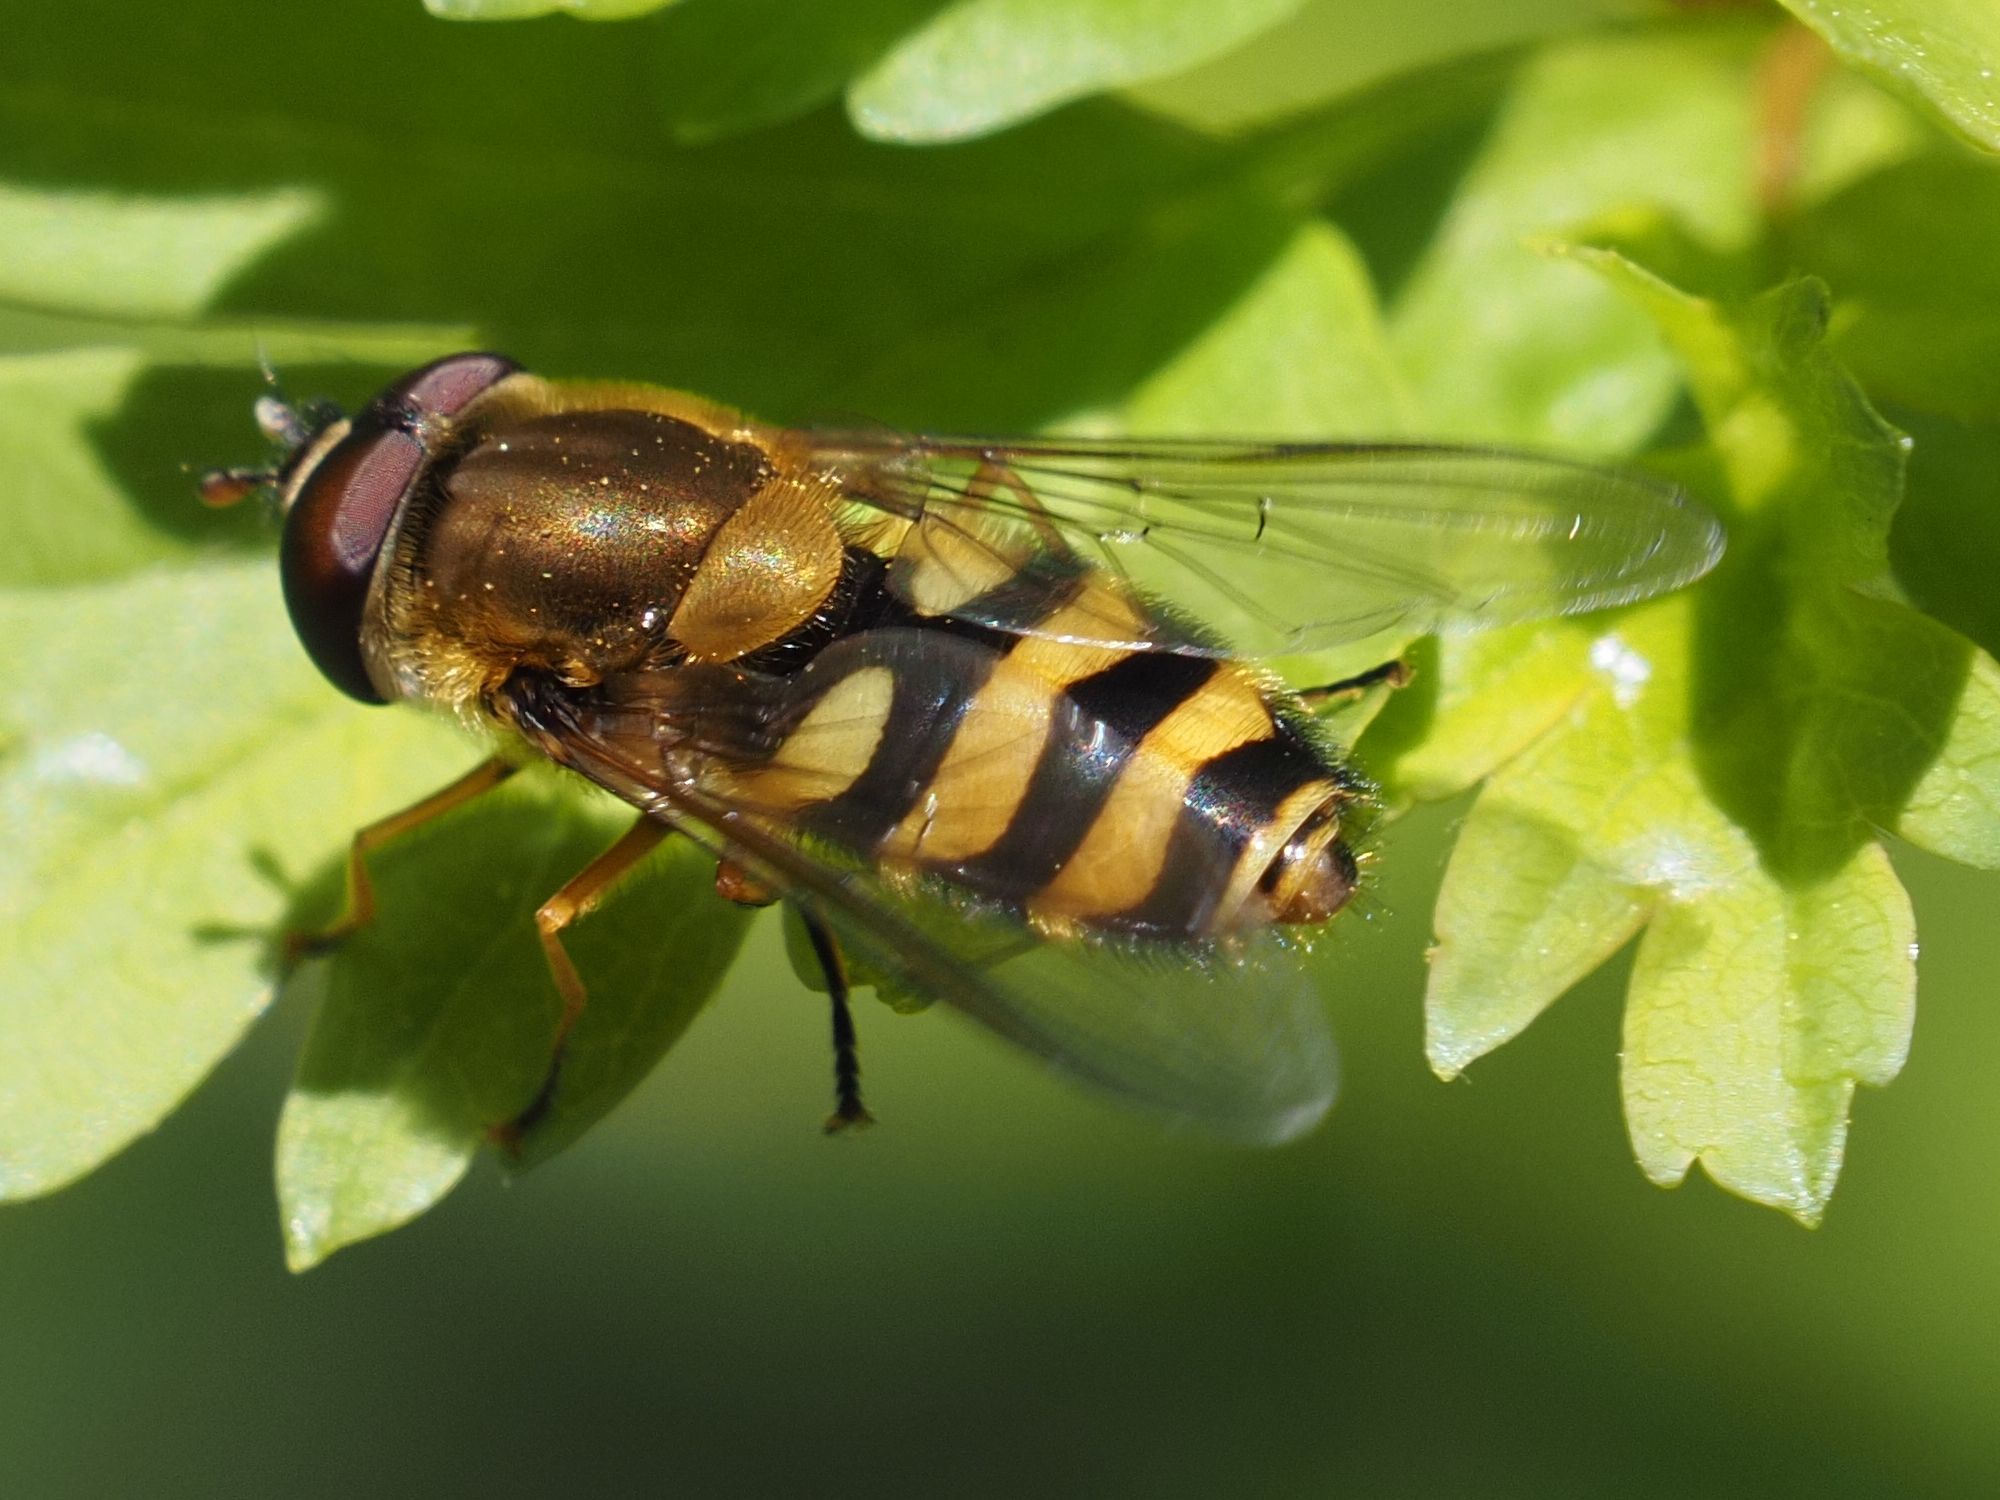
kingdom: Animalia
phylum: Arthropoda
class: Insecta
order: Diptera
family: Syrphidae
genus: Syrphus
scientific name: Syrphus
